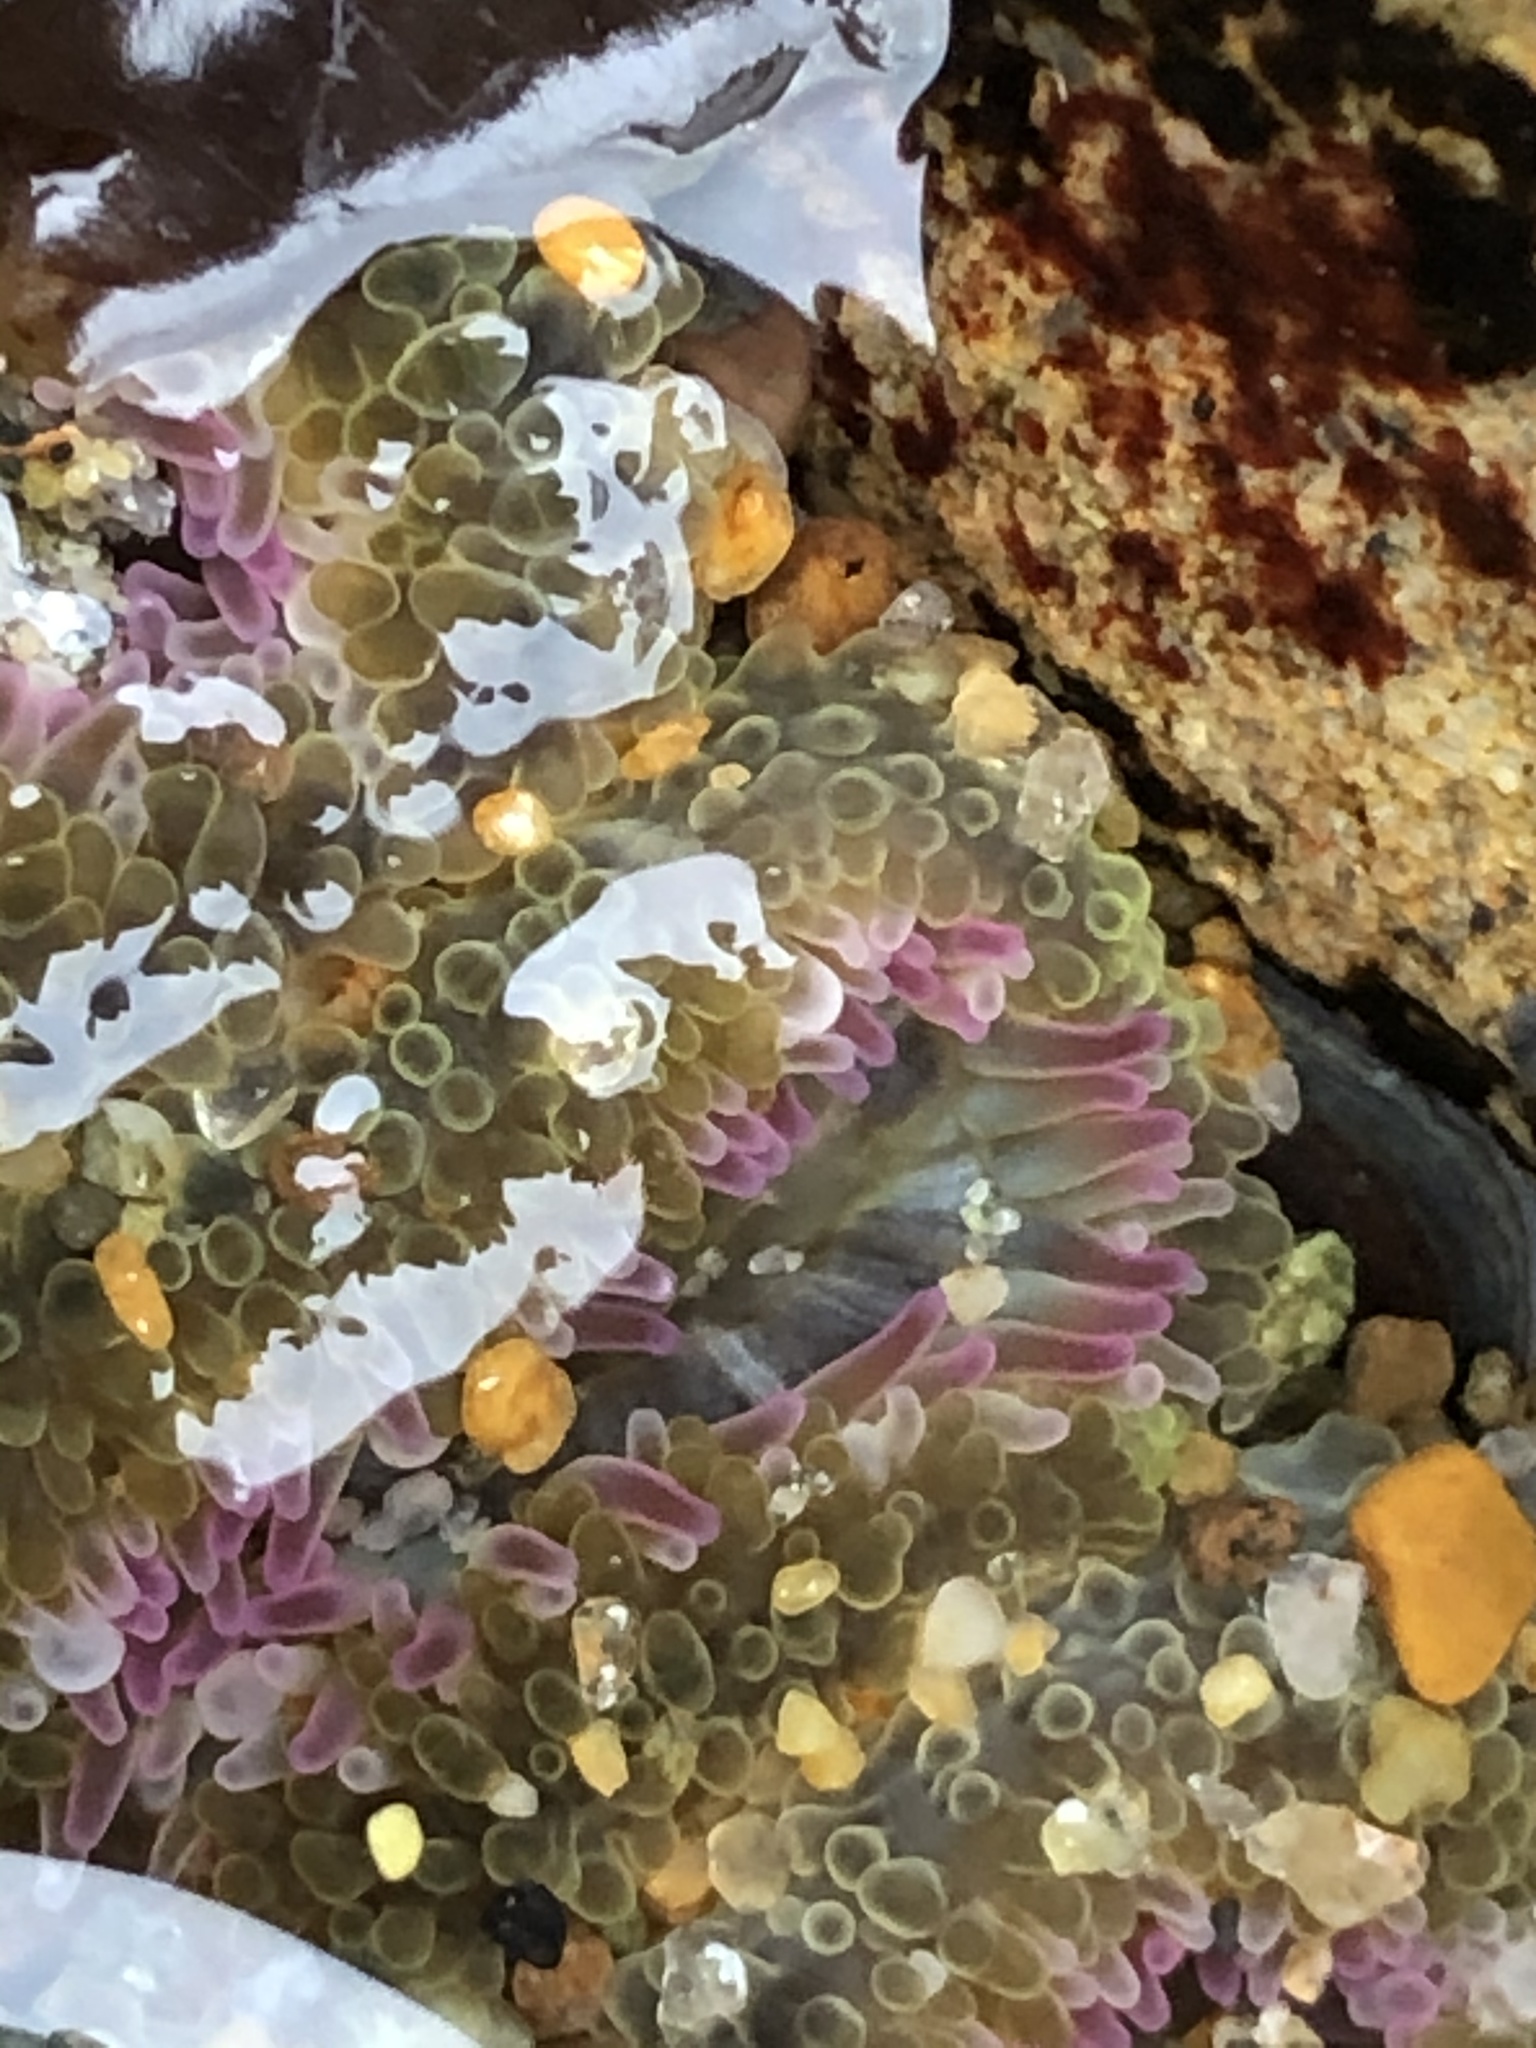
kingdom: Animalia
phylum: Cnidaria
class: Anthozoa
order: Actiniaria
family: Actiniidae
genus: Anthopleura
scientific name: Anthopleura elegantissima
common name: Clonal anemone
